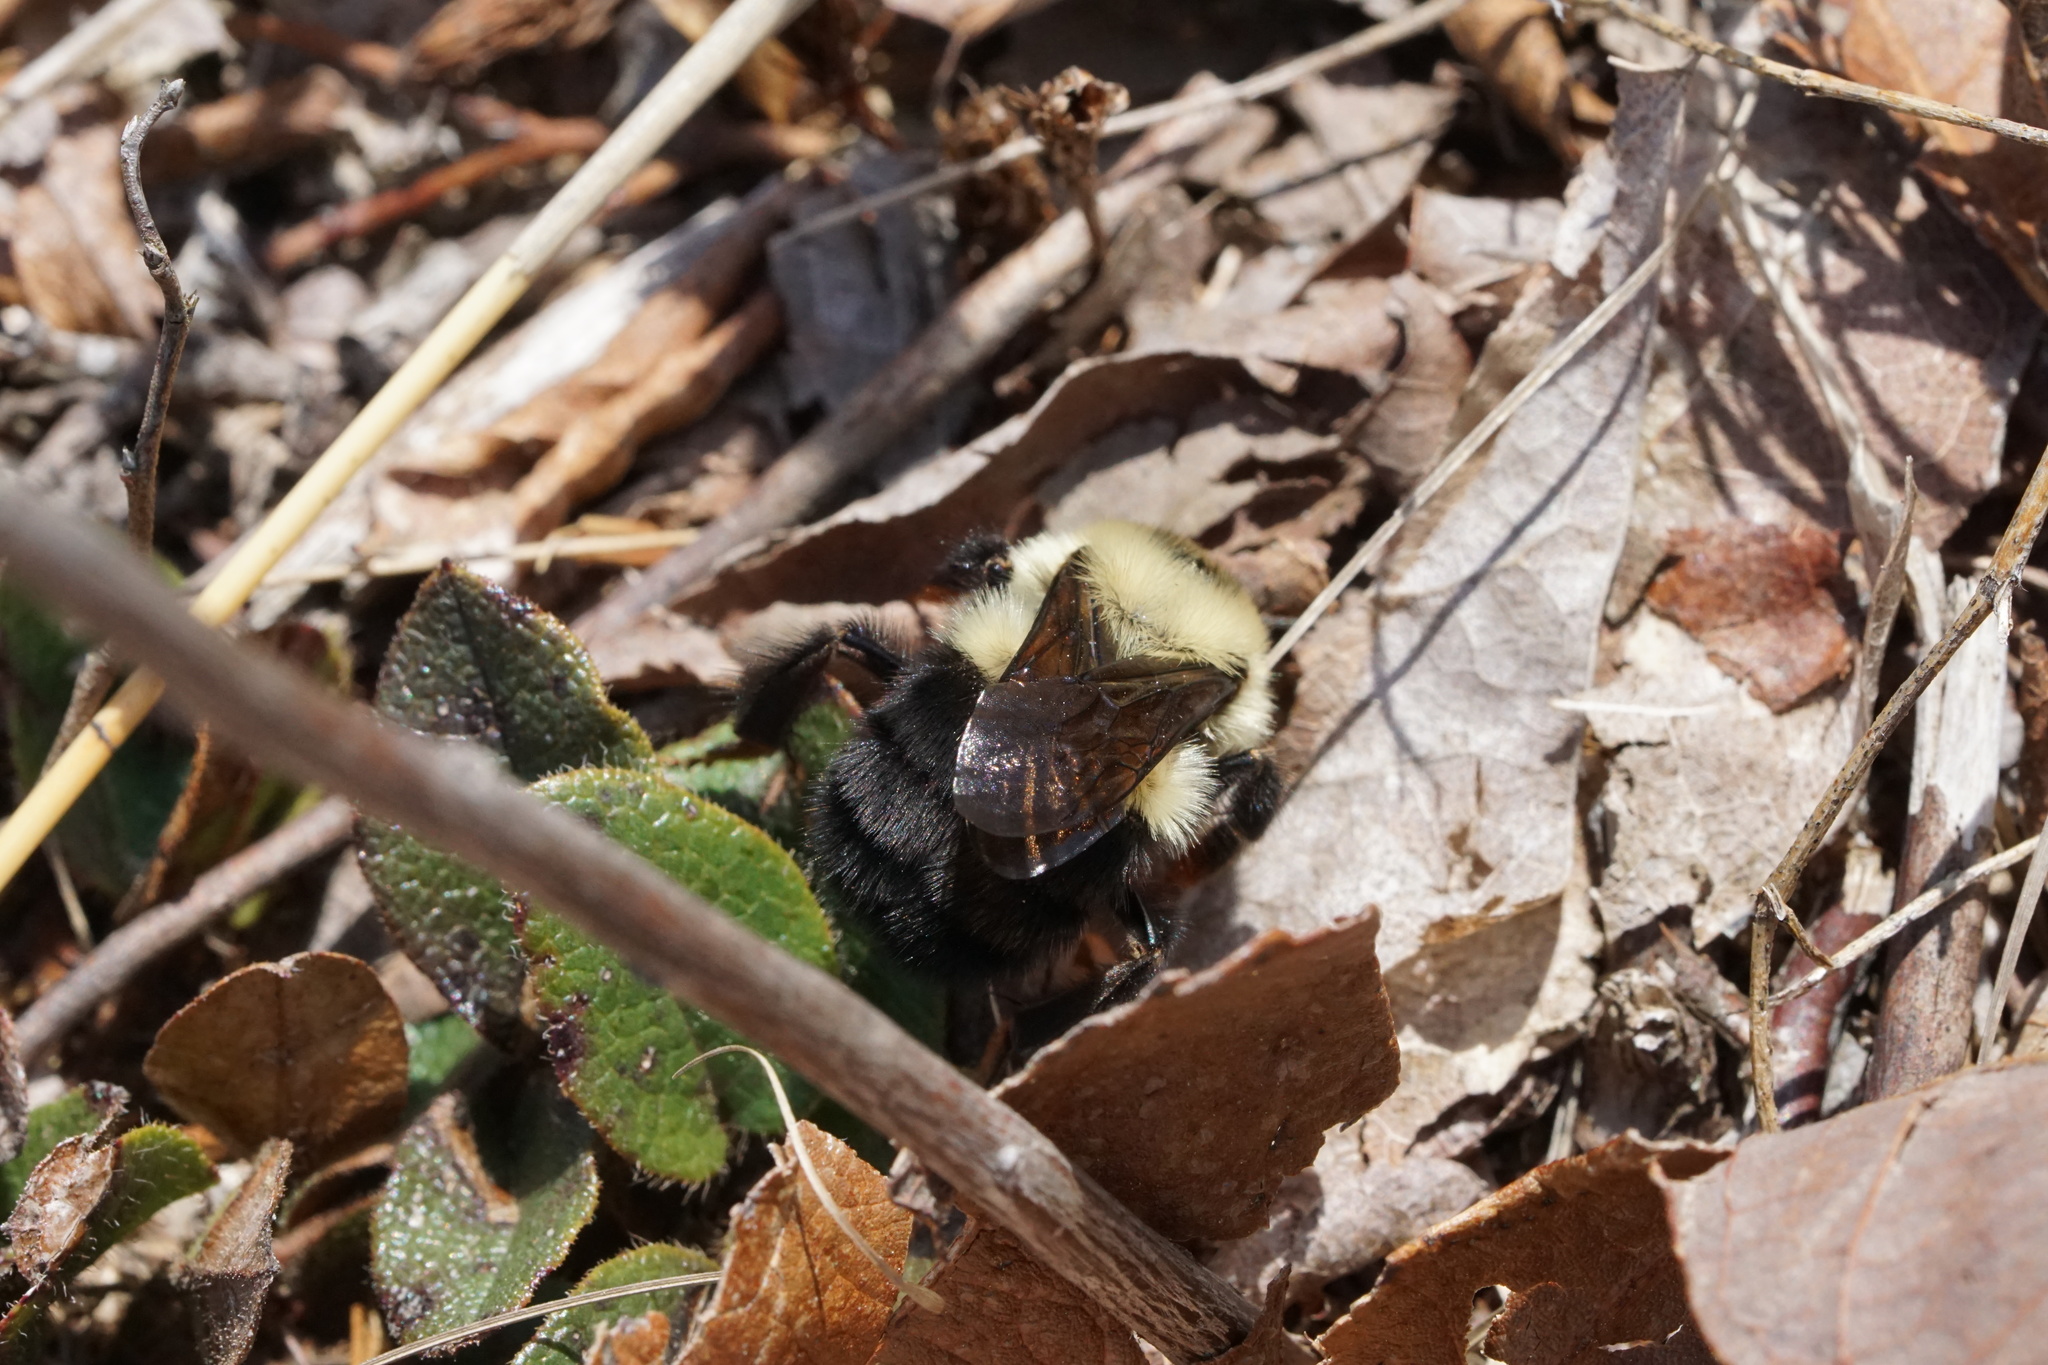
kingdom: Animalia
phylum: Arthropoda
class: Insecta
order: Hymenoptera
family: Apidae
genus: Bombus
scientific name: Bombus bimaculatus
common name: Two-spotted bumble bee
